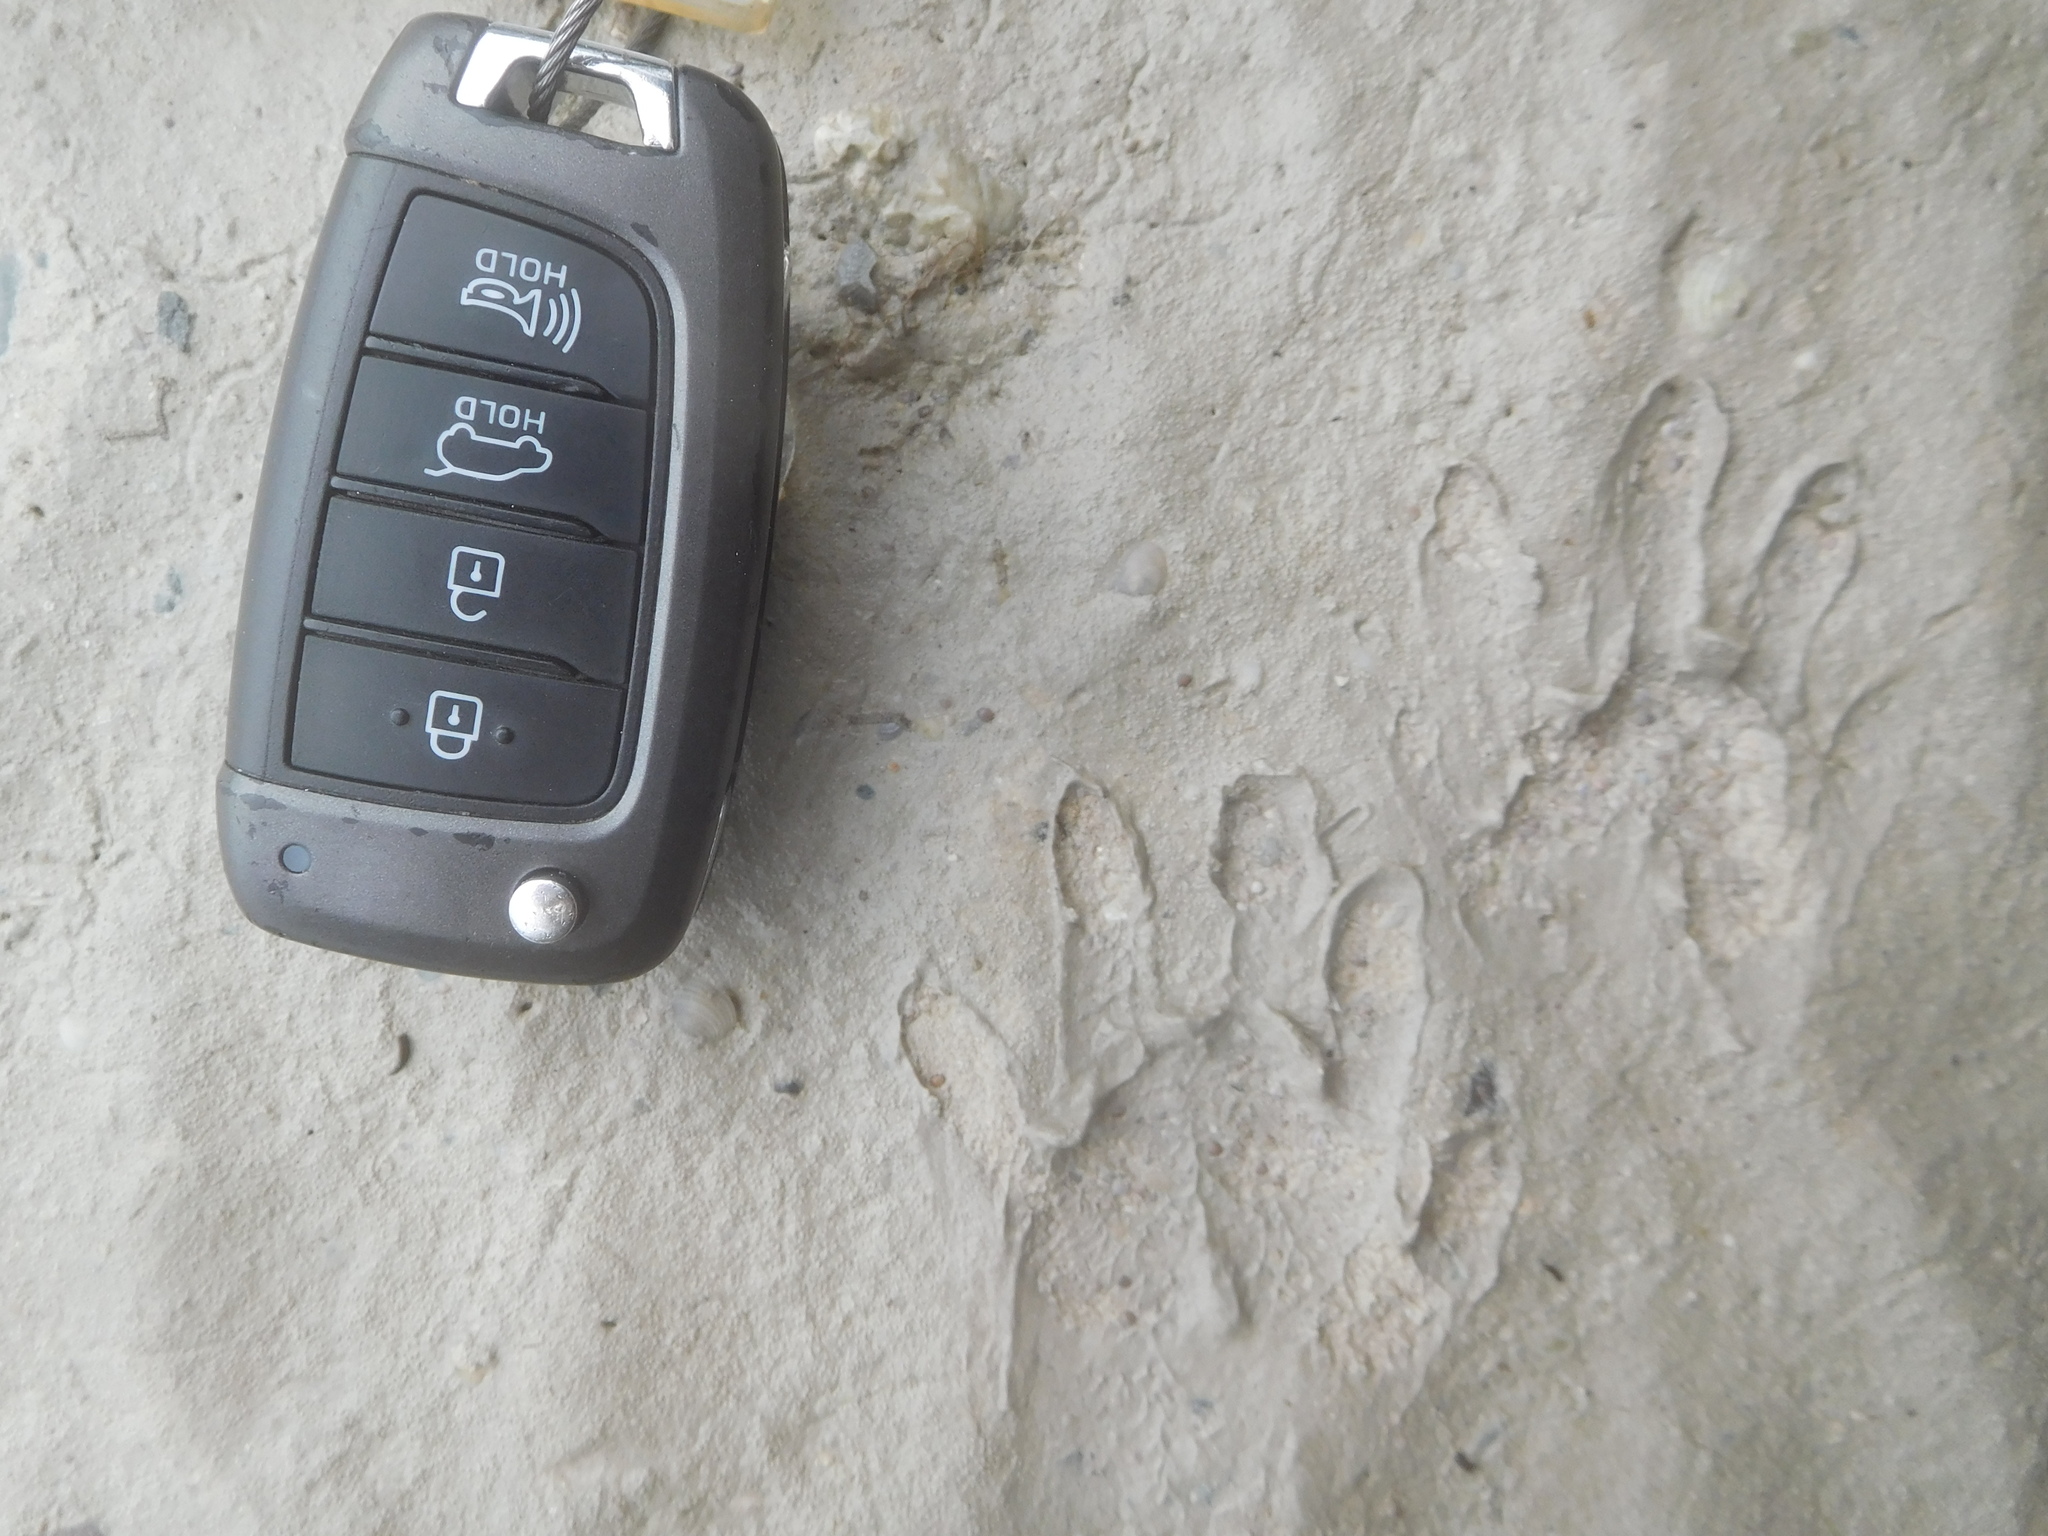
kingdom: Animalia
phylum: Chordata
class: Mammalia
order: Carnivora
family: Procyonidae
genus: Procyon
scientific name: Procyon lotor
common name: Raccoon
